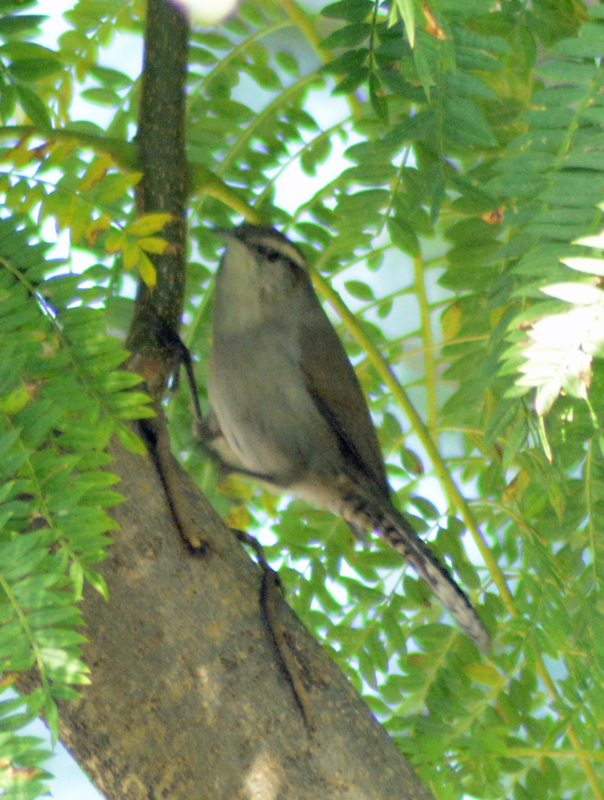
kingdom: Animalia
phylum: Chordata
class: Aves
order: Passeriformes
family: Troglodytidae
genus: Thryomanes
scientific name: Thryomanes bewickii
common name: Bewick's wren
